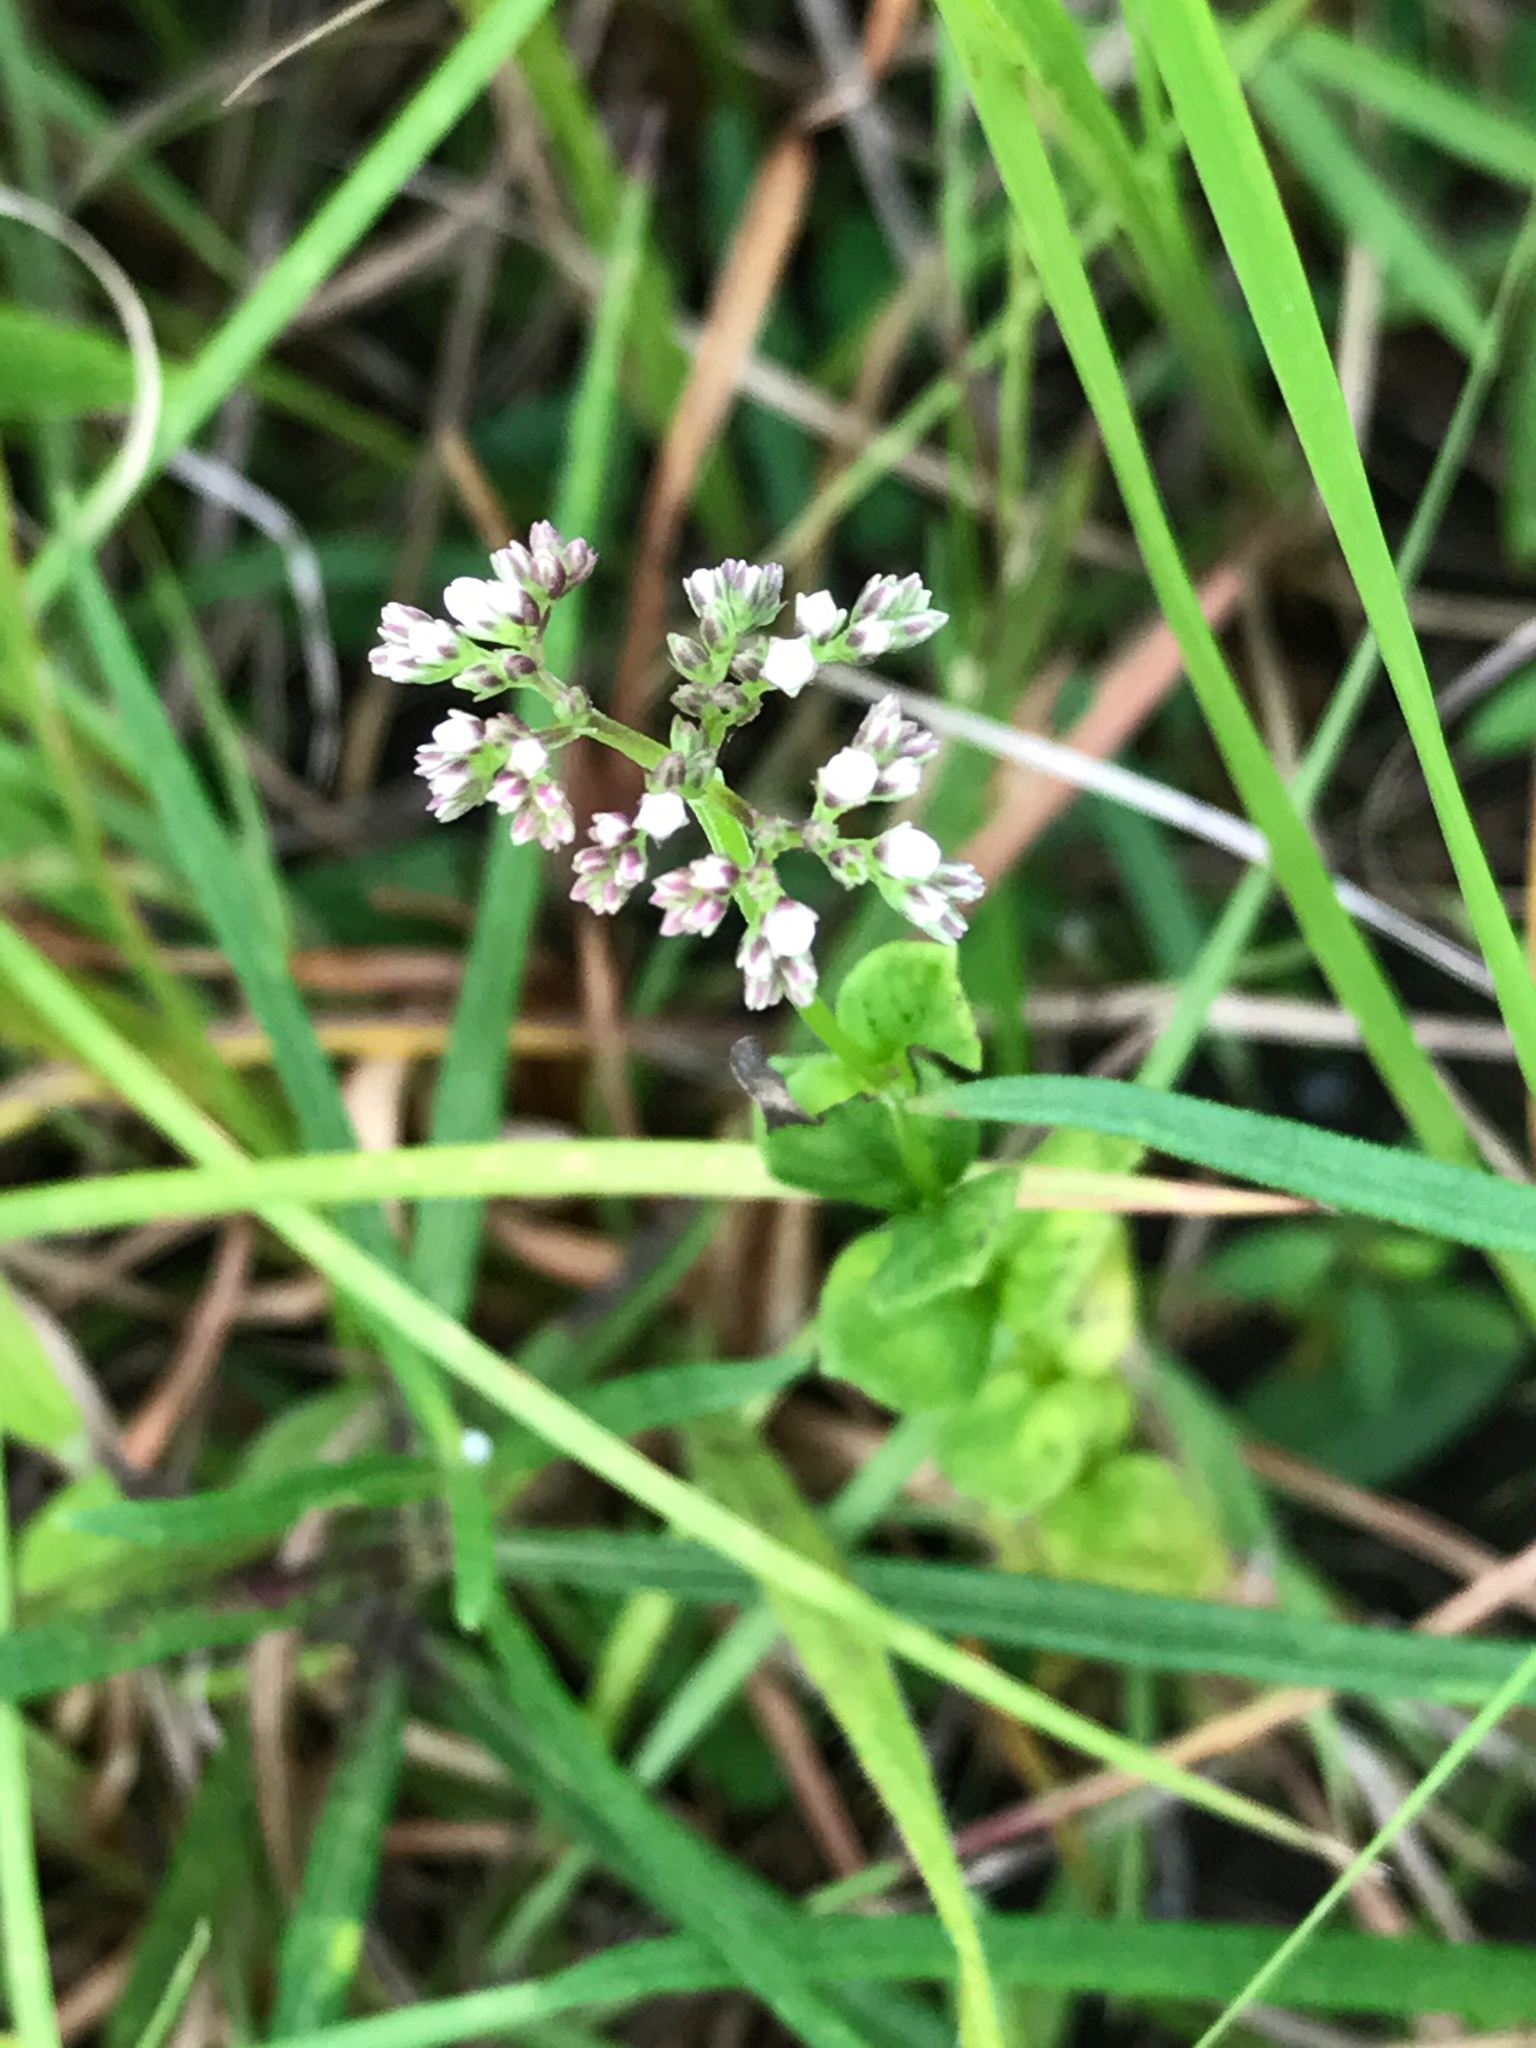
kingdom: Plantae
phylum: Tracheophyta
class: Magnoliopsida
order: Gentianales
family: Loganiaceae
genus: Mitreola
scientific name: Mitreola sessilifolia
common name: Swamp hornpod
